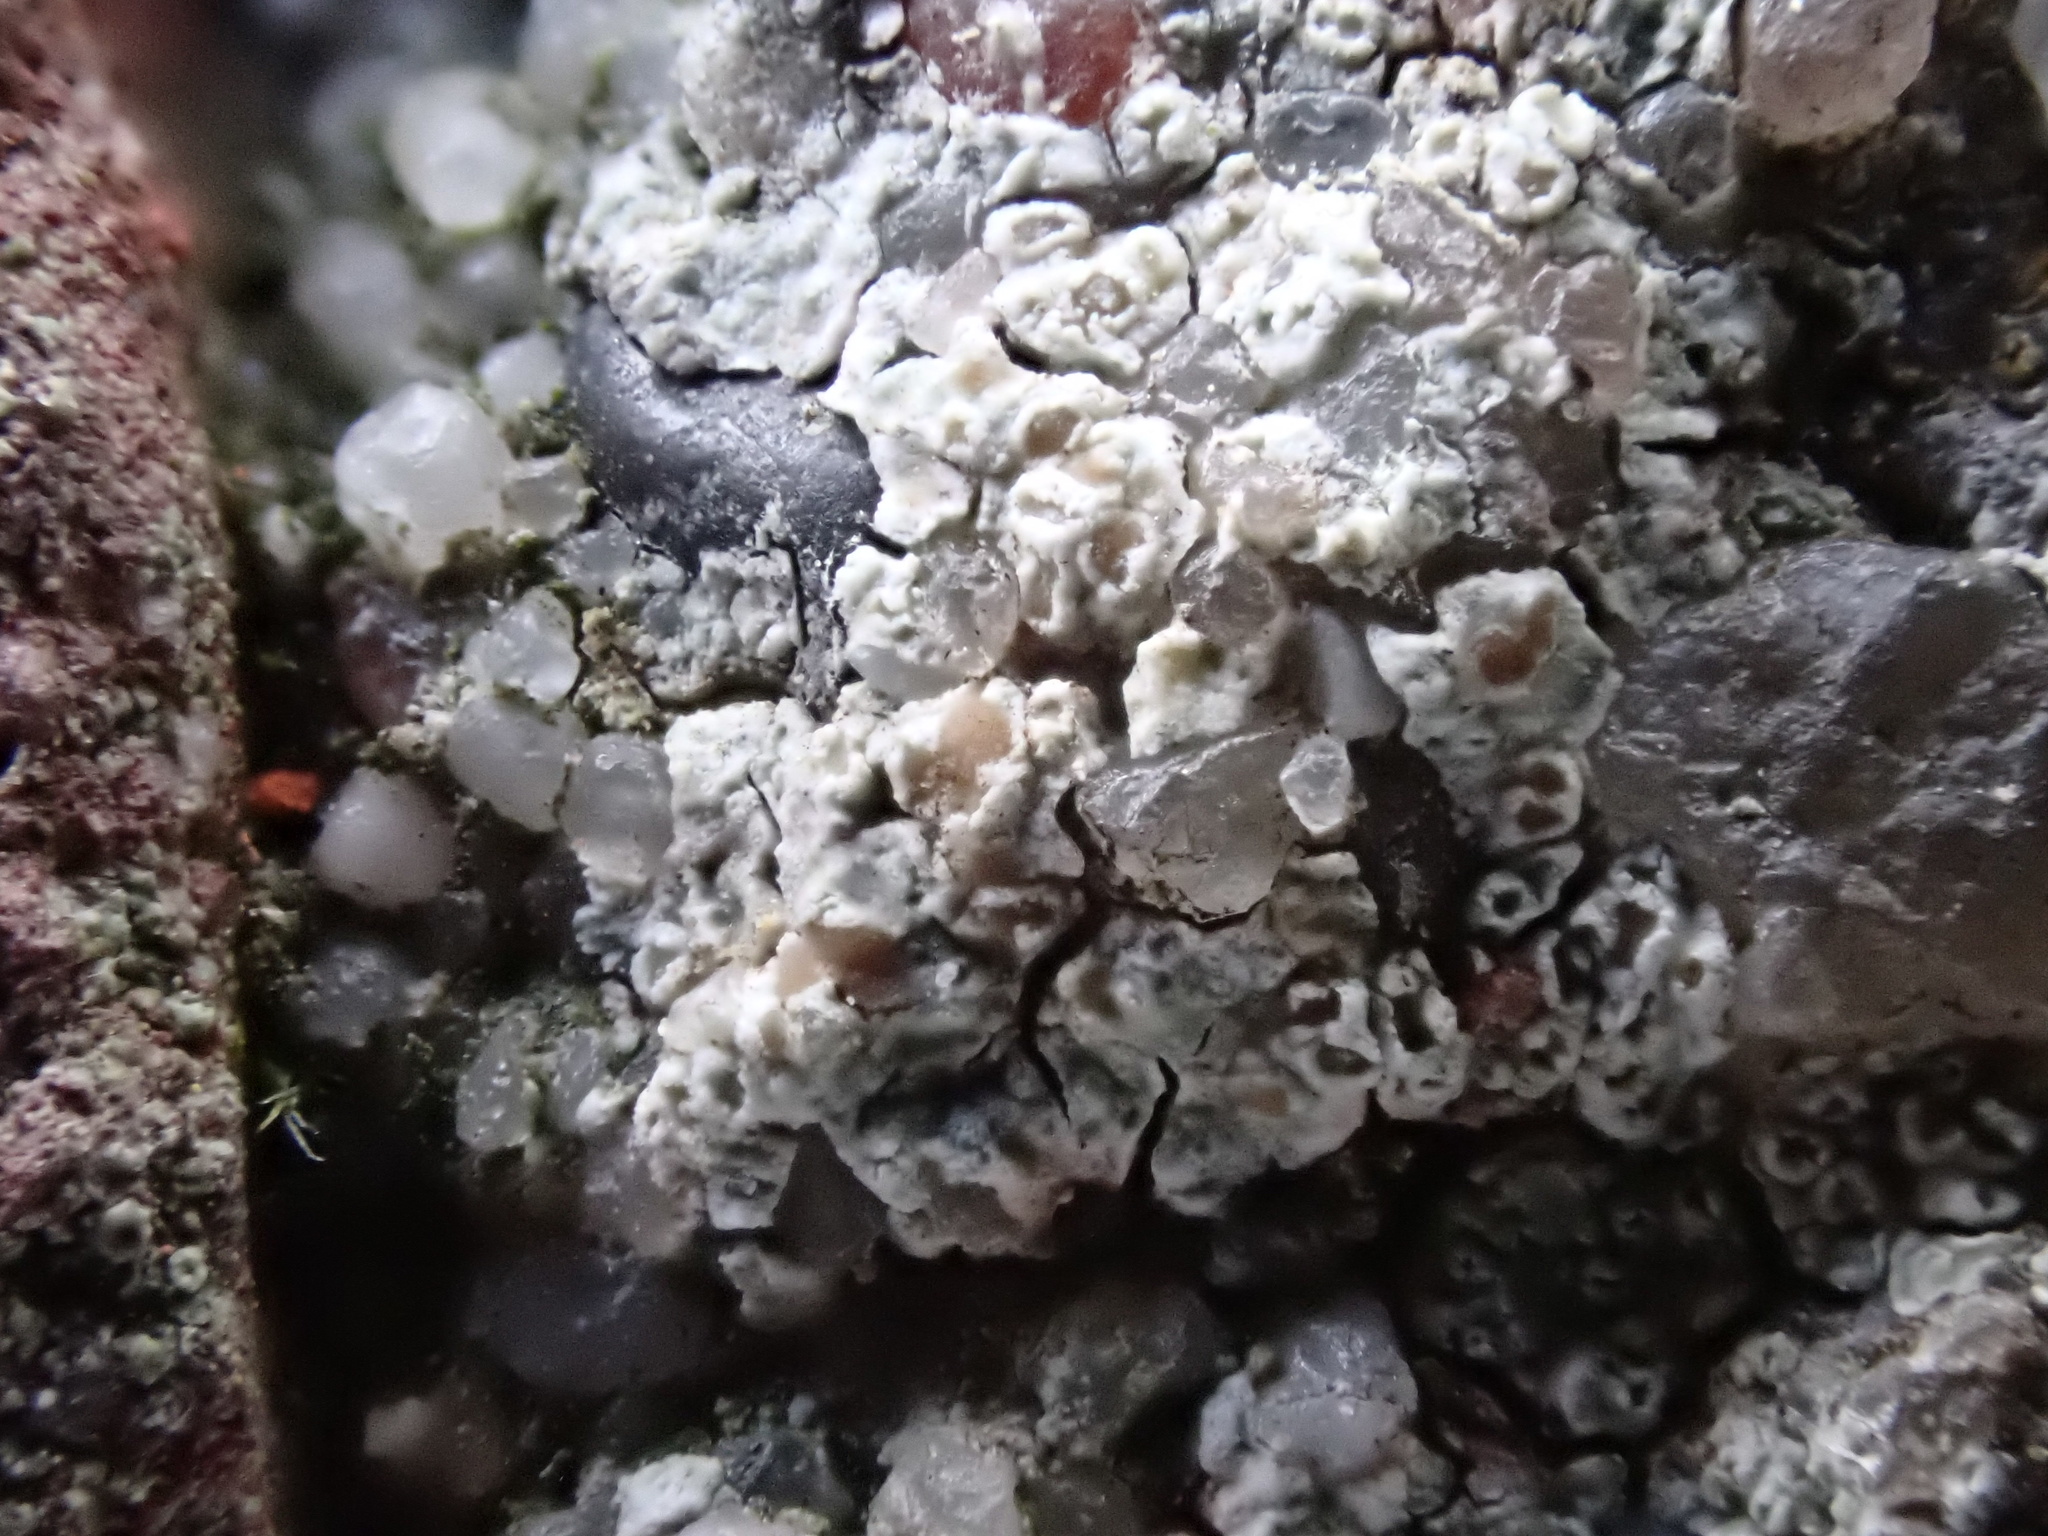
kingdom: Fungi
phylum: Ascomycota
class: Lecanoromycetes
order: Lecanorales
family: Lecanoraceae
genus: Polyozosia
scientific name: Polyozosia albescens
